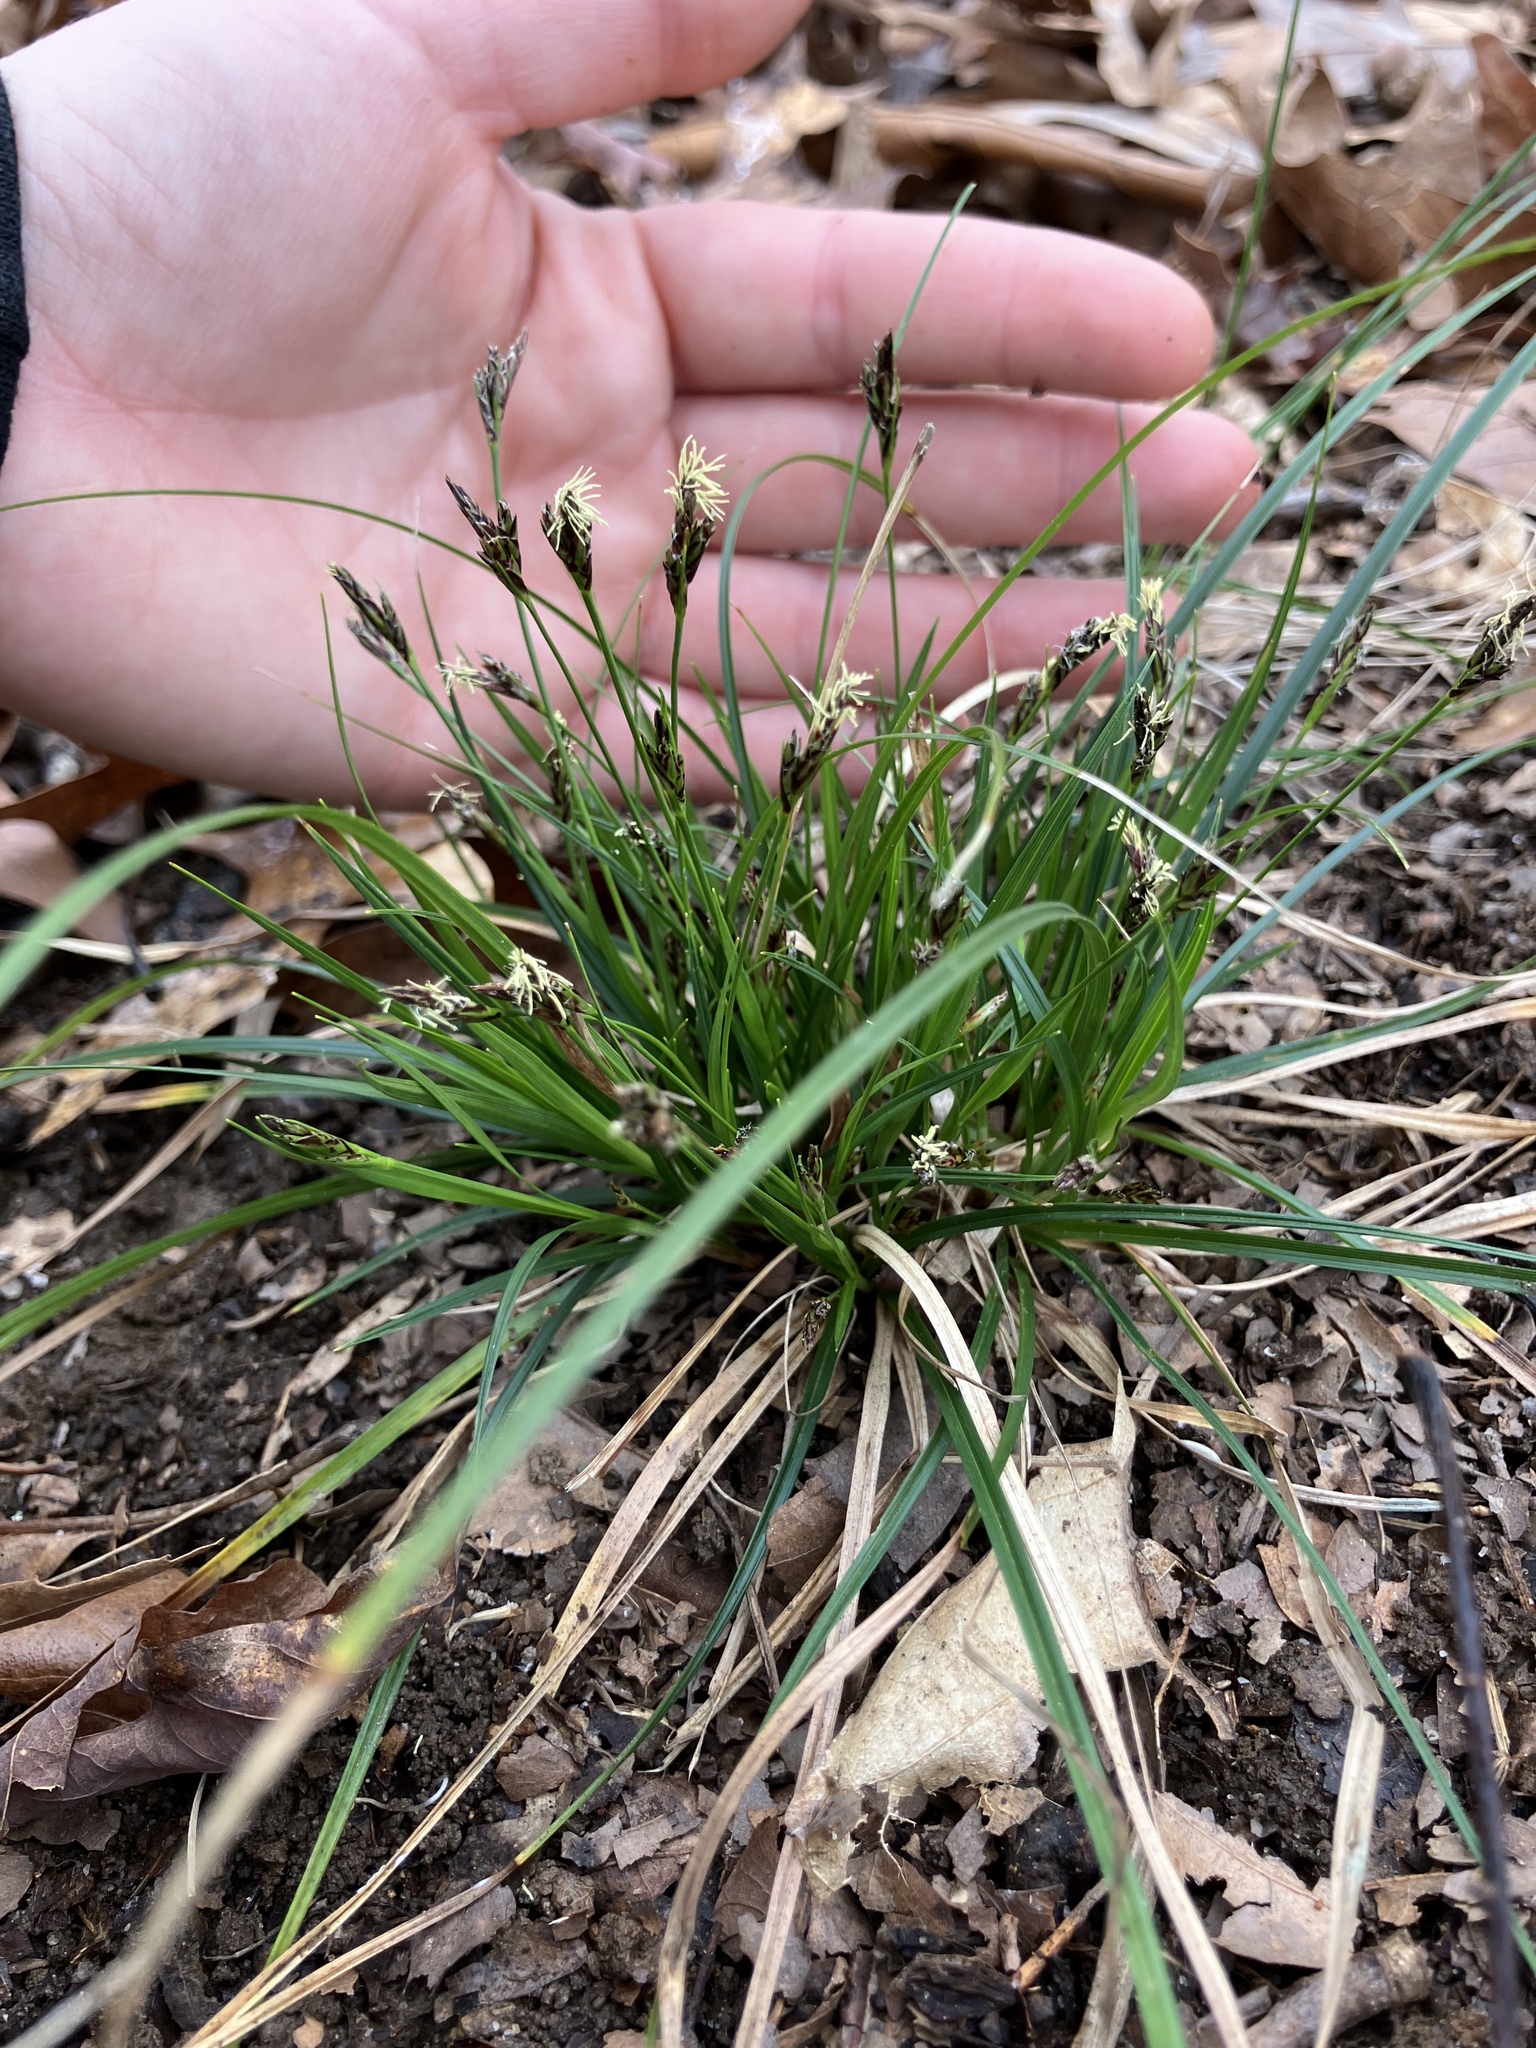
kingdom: Plantae
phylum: Tracheophyta
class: Liliopsida
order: Poales
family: Cyperaceae
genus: Carex
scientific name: Carex nigromarginata
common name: Black-edged sedge
